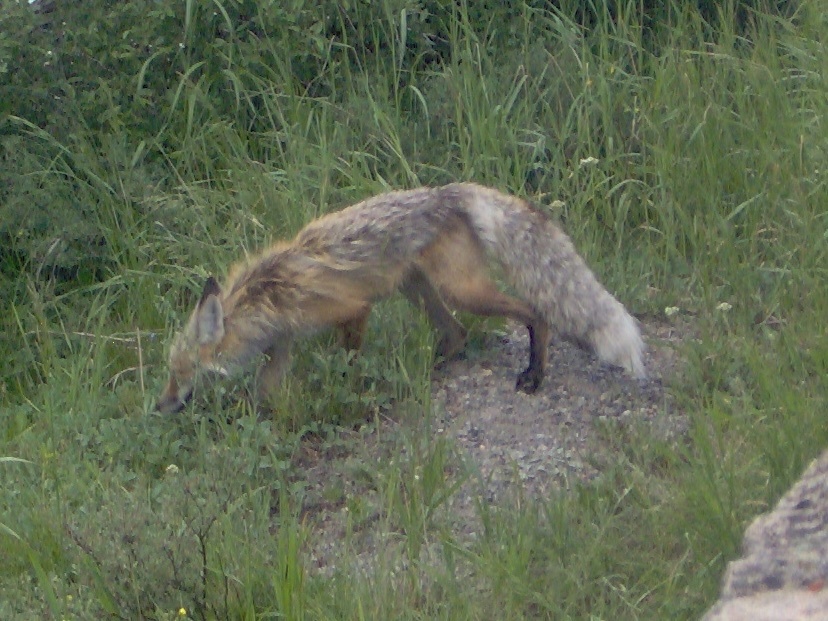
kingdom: Animalia
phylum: Chordata
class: Mammalia
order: Carnivora
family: Canidae
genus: Vulpes
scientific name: Vulpes vulpes
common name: Red fox
